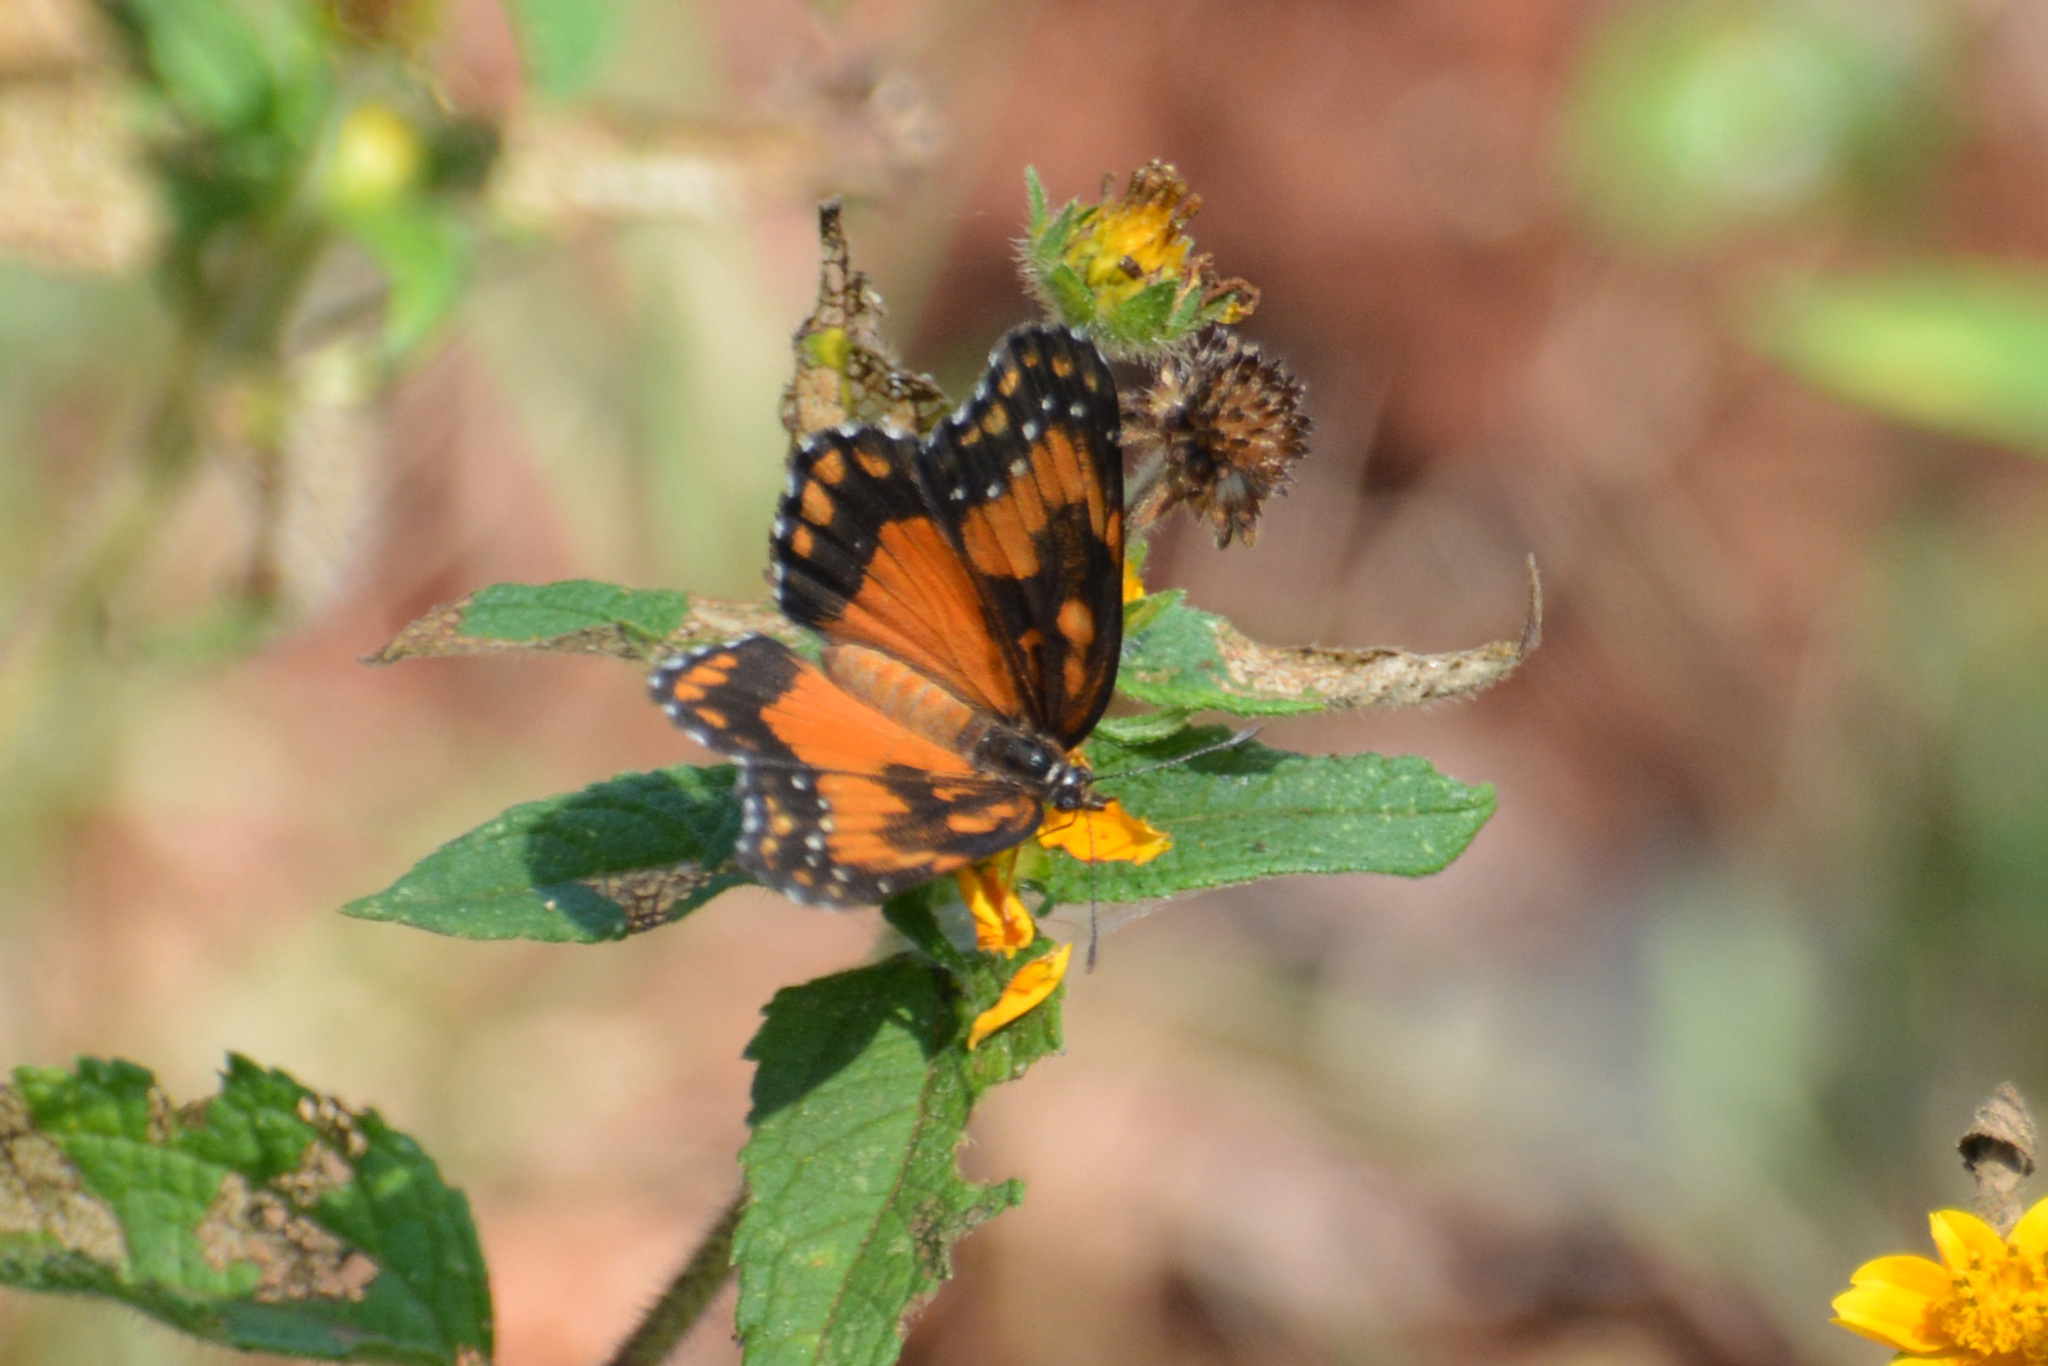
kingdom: Animalia
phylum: Arthropoda
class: Insecta
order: Lepidoptera
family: Nymphalidae
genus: Chlosyne
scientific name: Chlosyne lacinia
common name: Bordered patch
